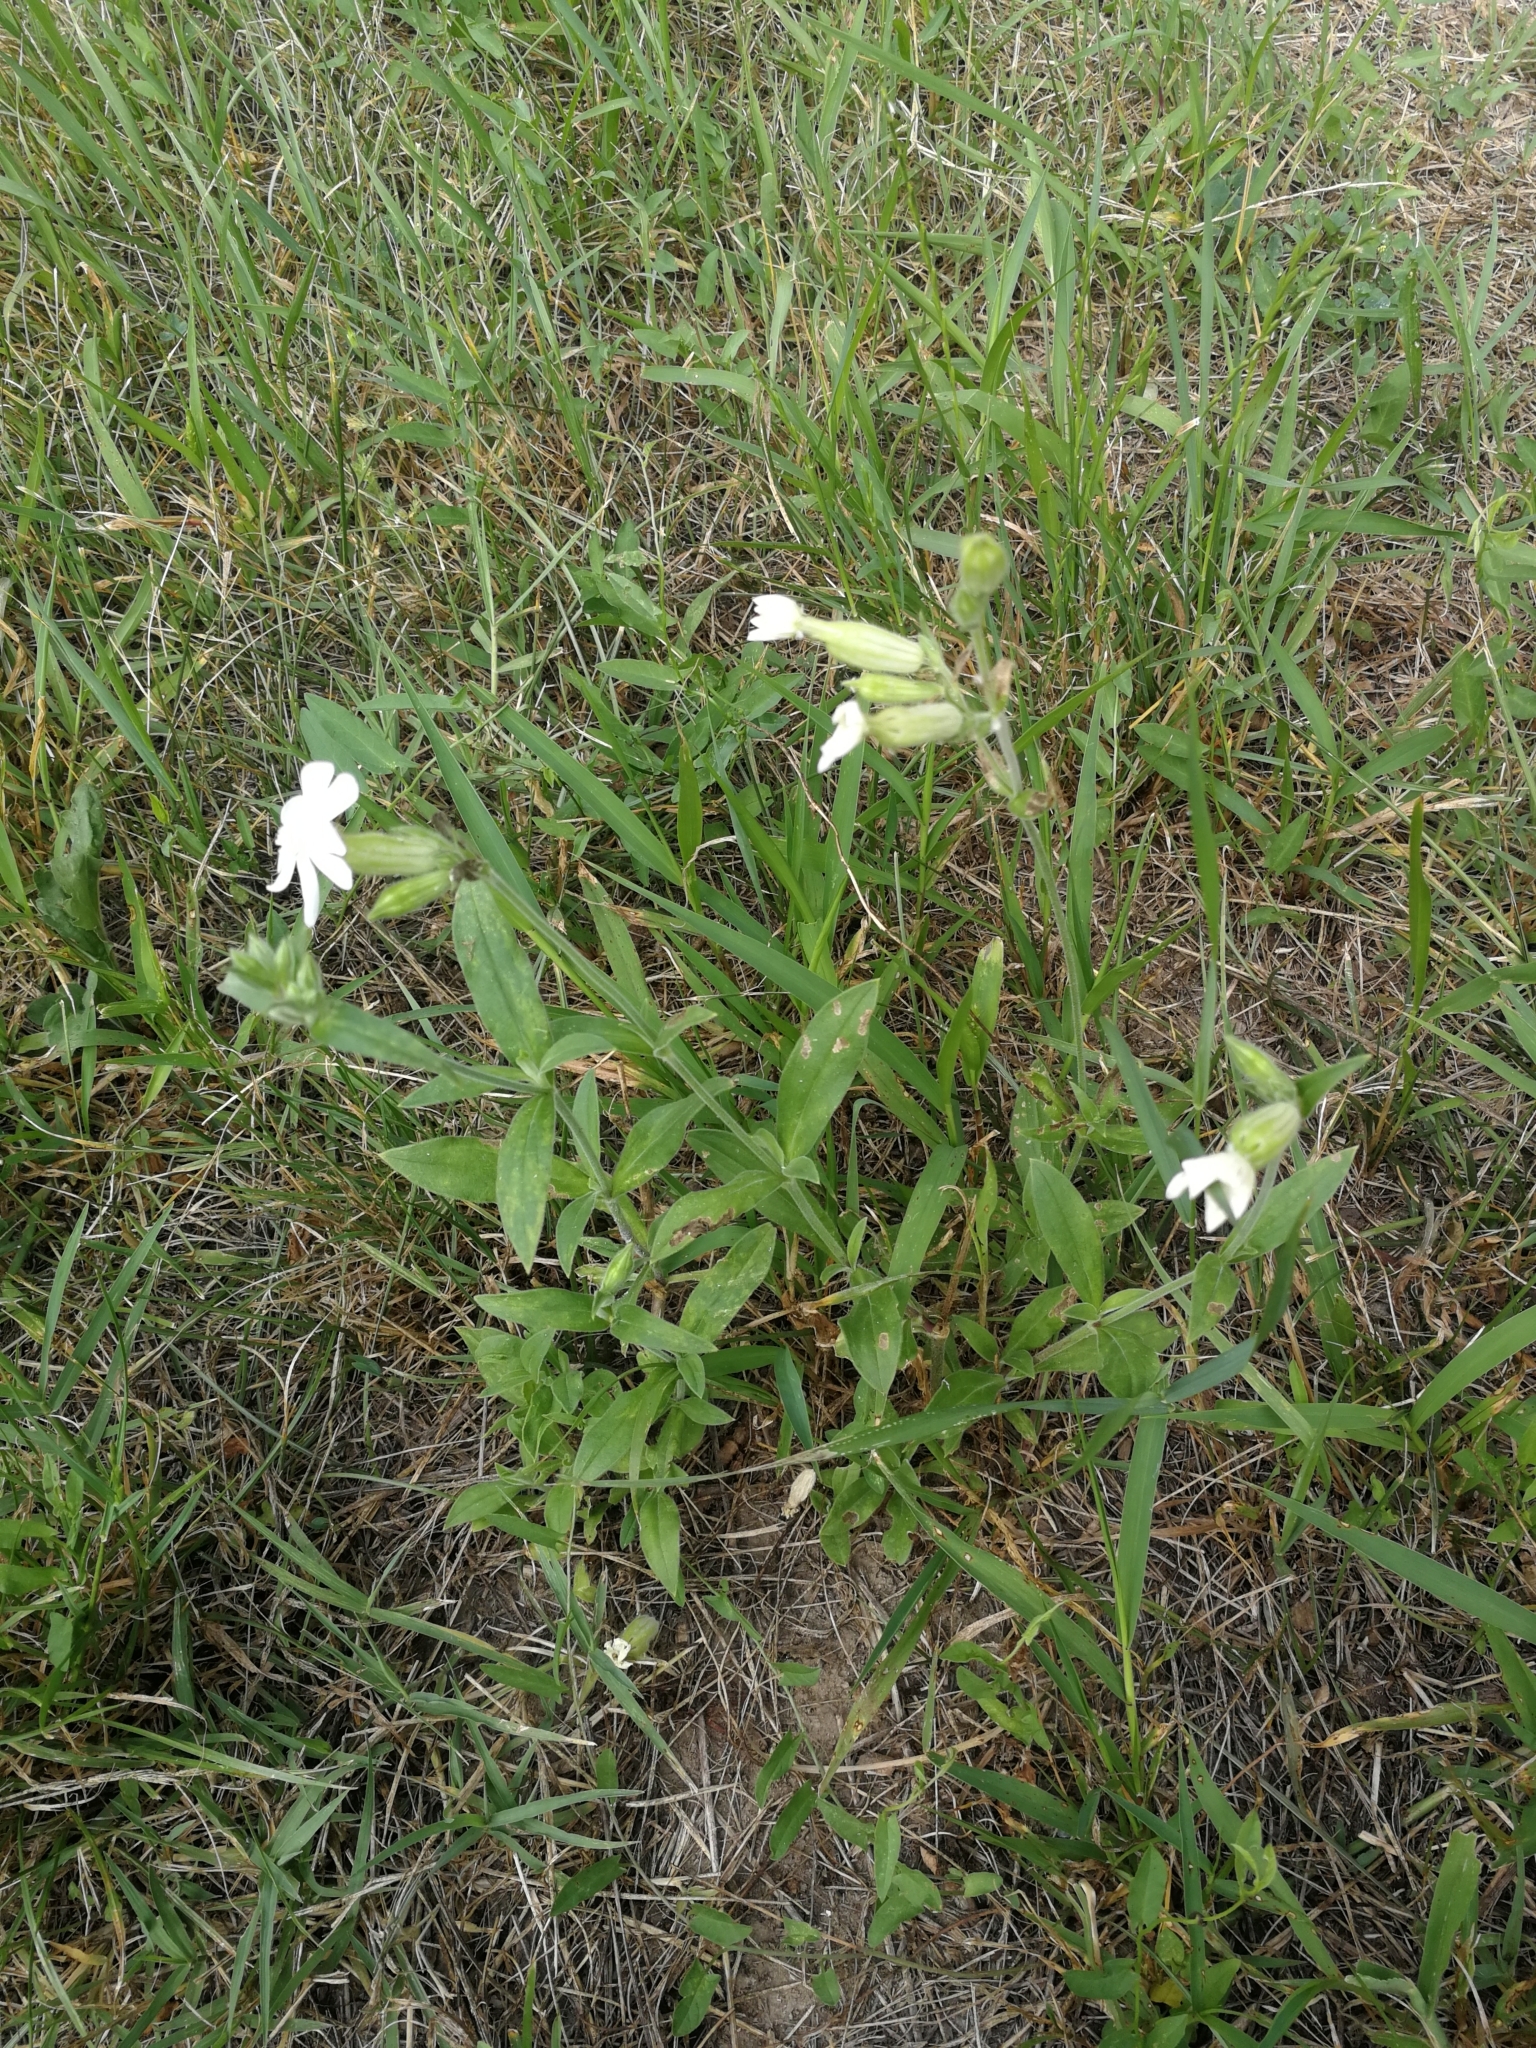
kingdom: Plantae
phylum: Tracheophyta
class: Magnoliopsida
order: Caryophyllales
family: Caryophyllaceae
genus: Silene
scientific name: Silene latifolia
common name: White campion
